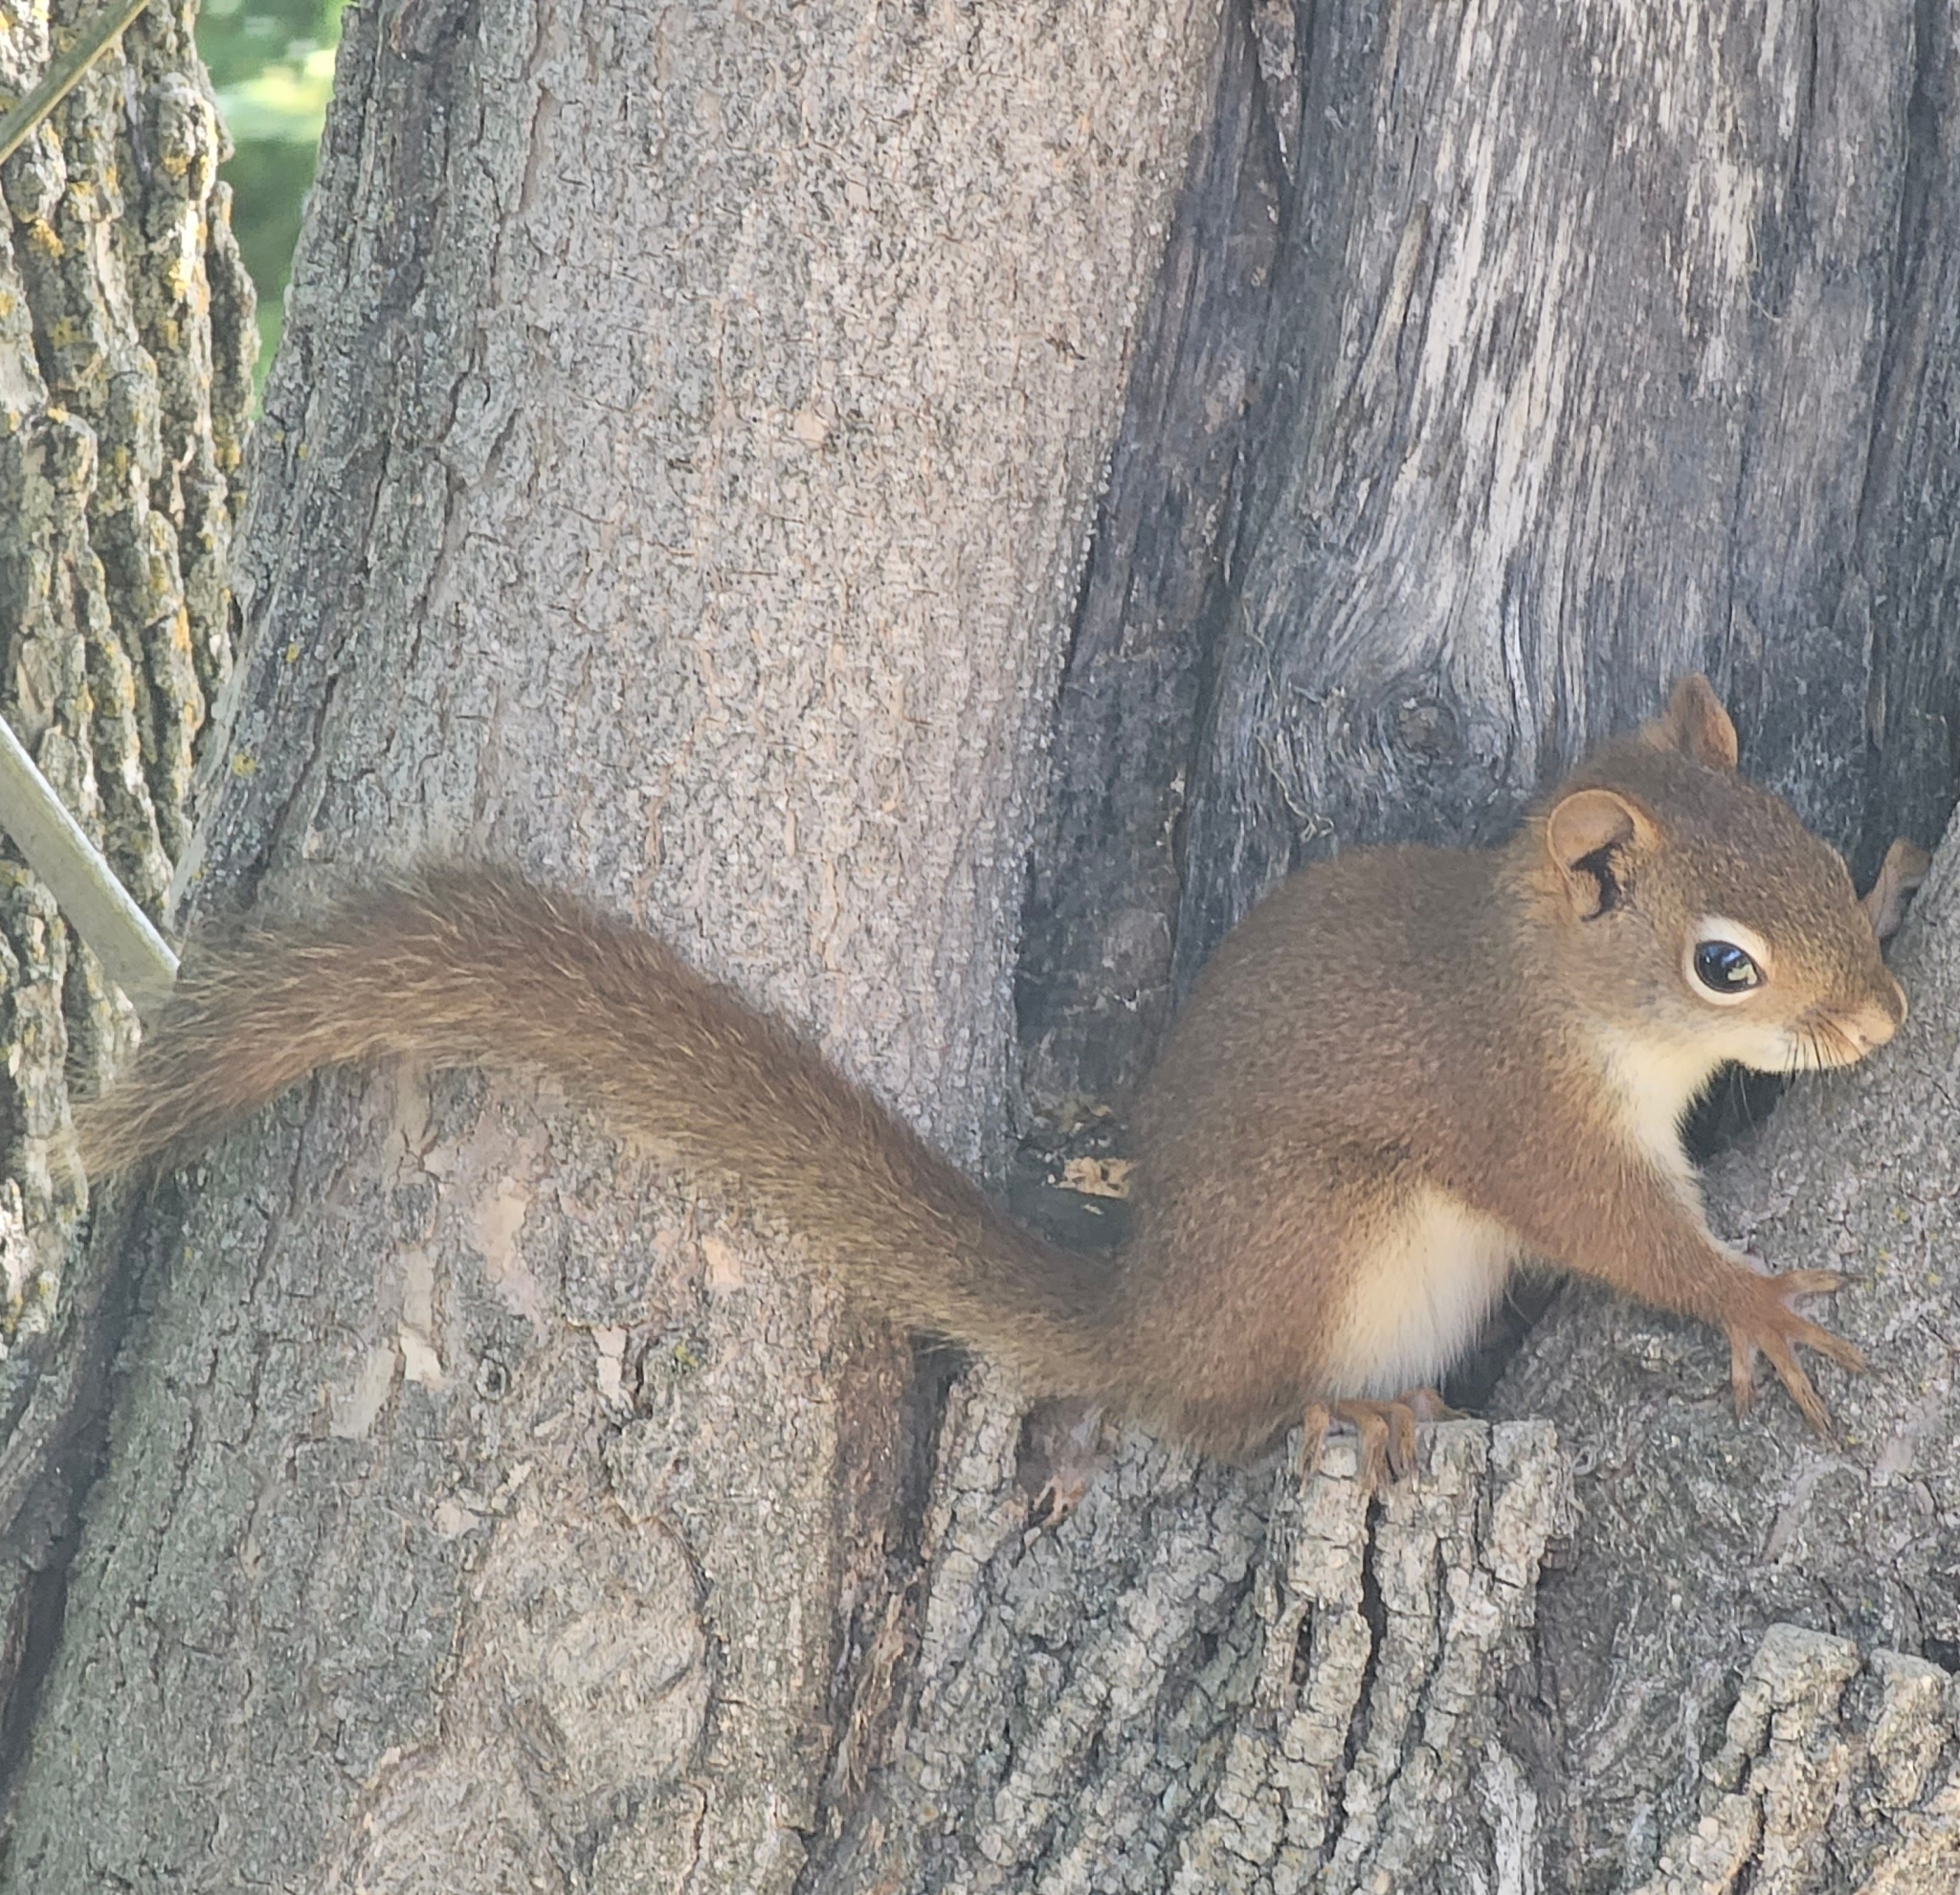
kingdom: Animalia
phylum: Chordata
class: Mammalia
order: Rodentia
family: Sciuridae
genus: Tamiasciurus
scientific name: Tamiasciurus hudsonicus
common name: Red squirrel
